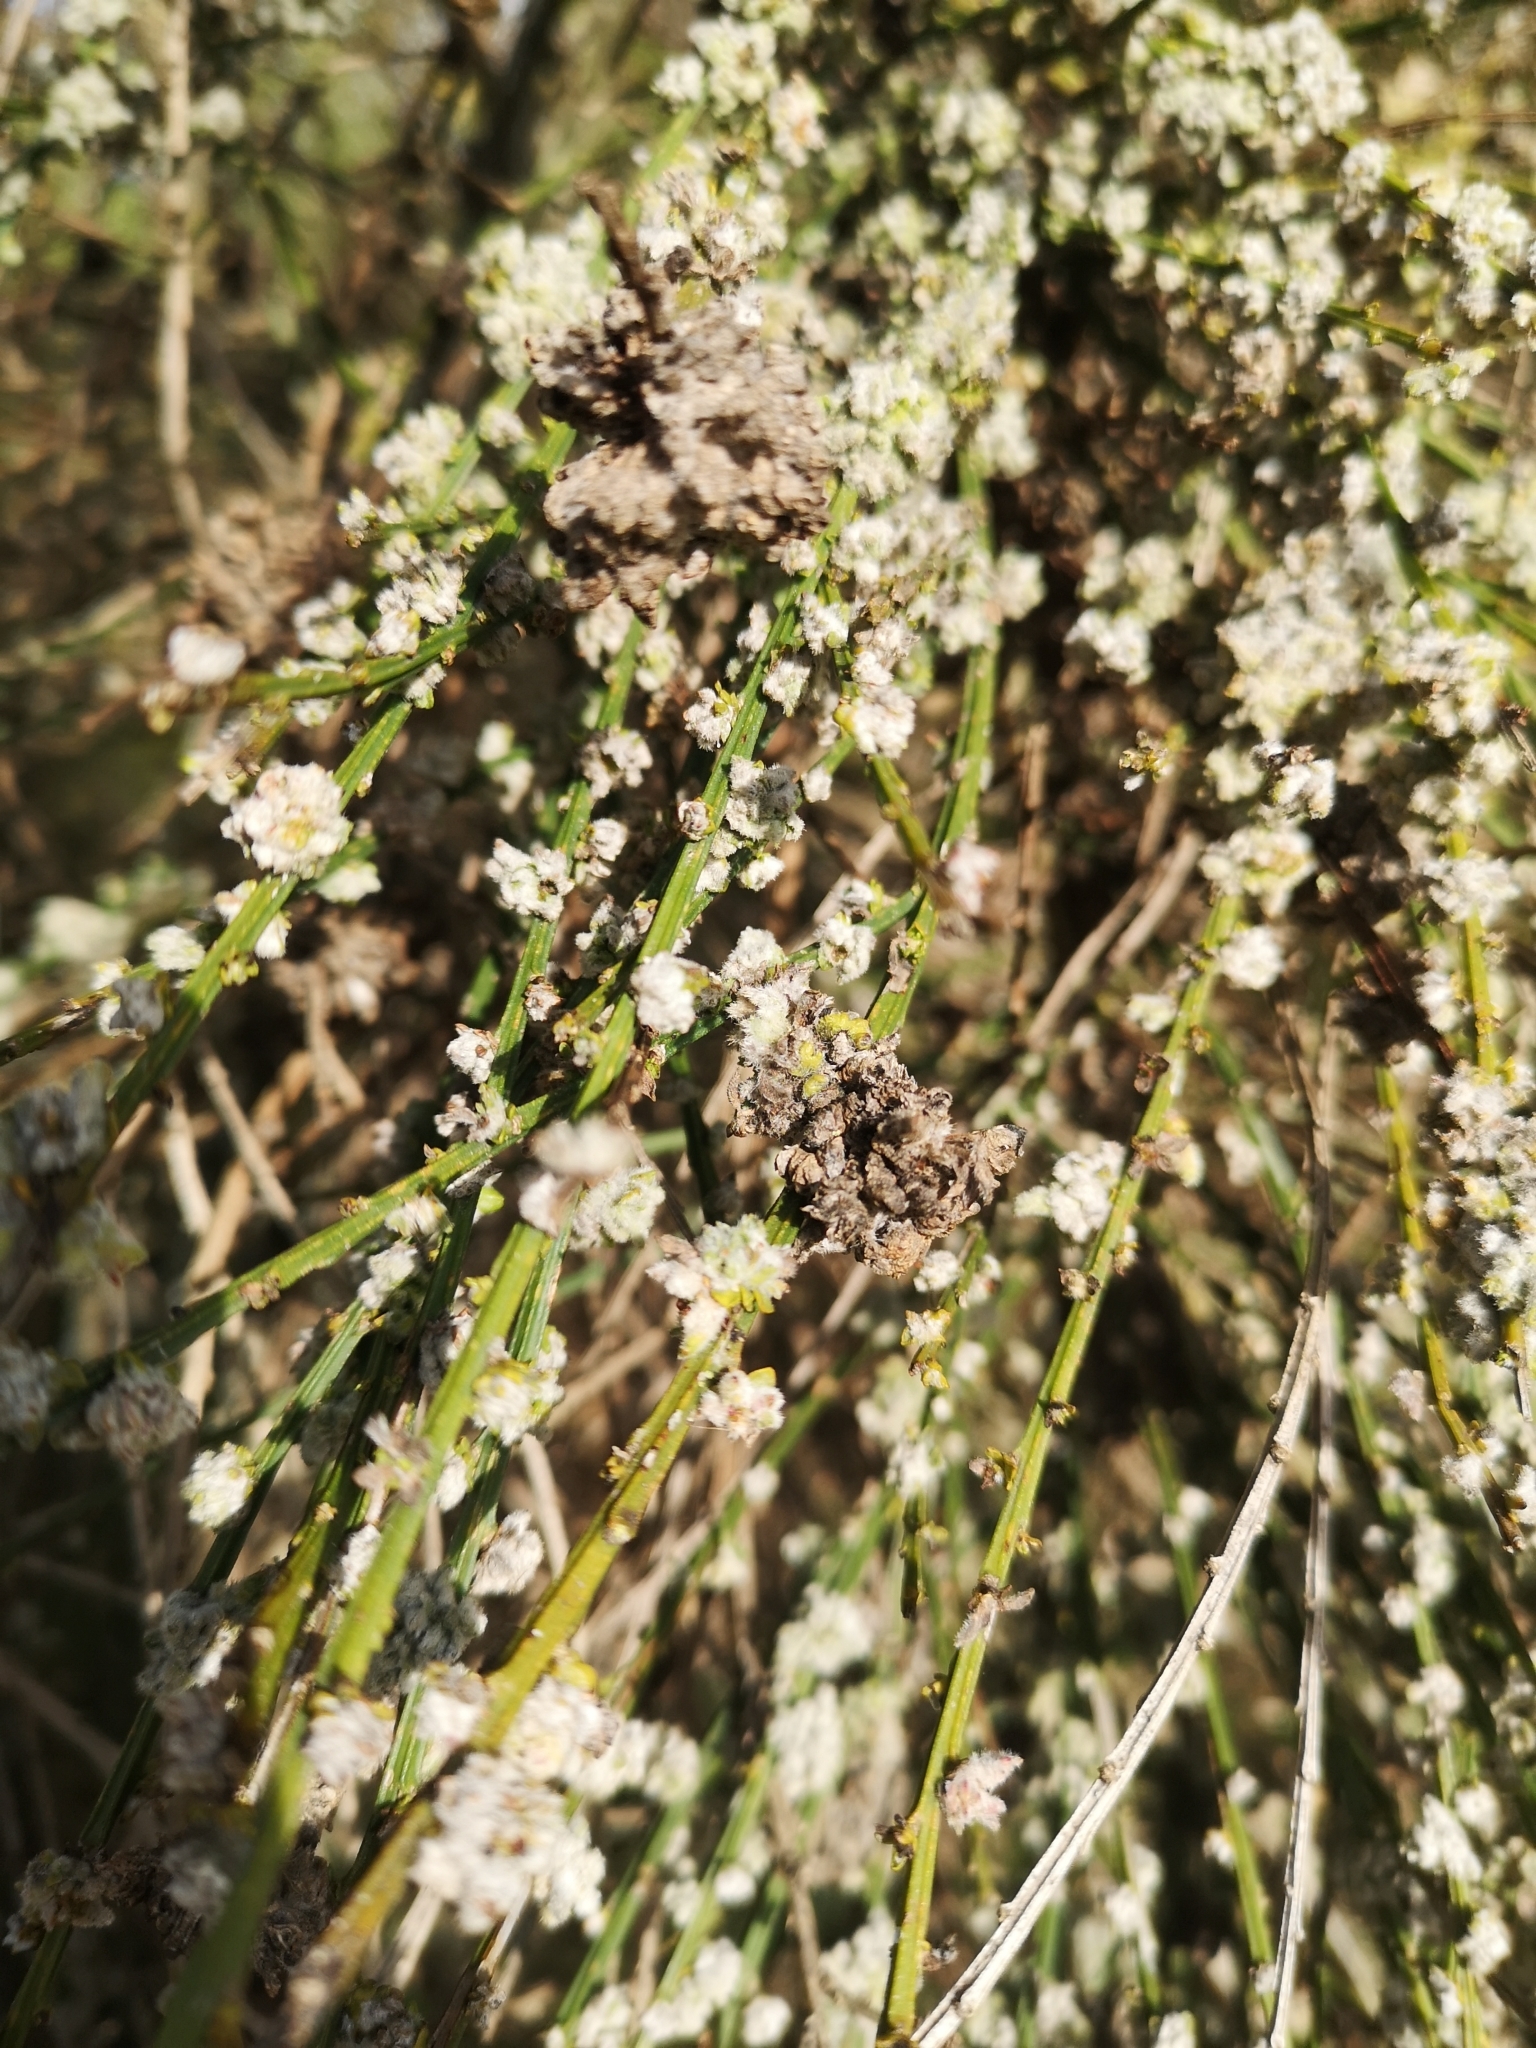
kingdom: Animalia
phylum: Arthropoda
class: Arachnida
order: Trombidiformes
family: Eriophyidae
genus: Aceria
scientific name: Aceria genistae
